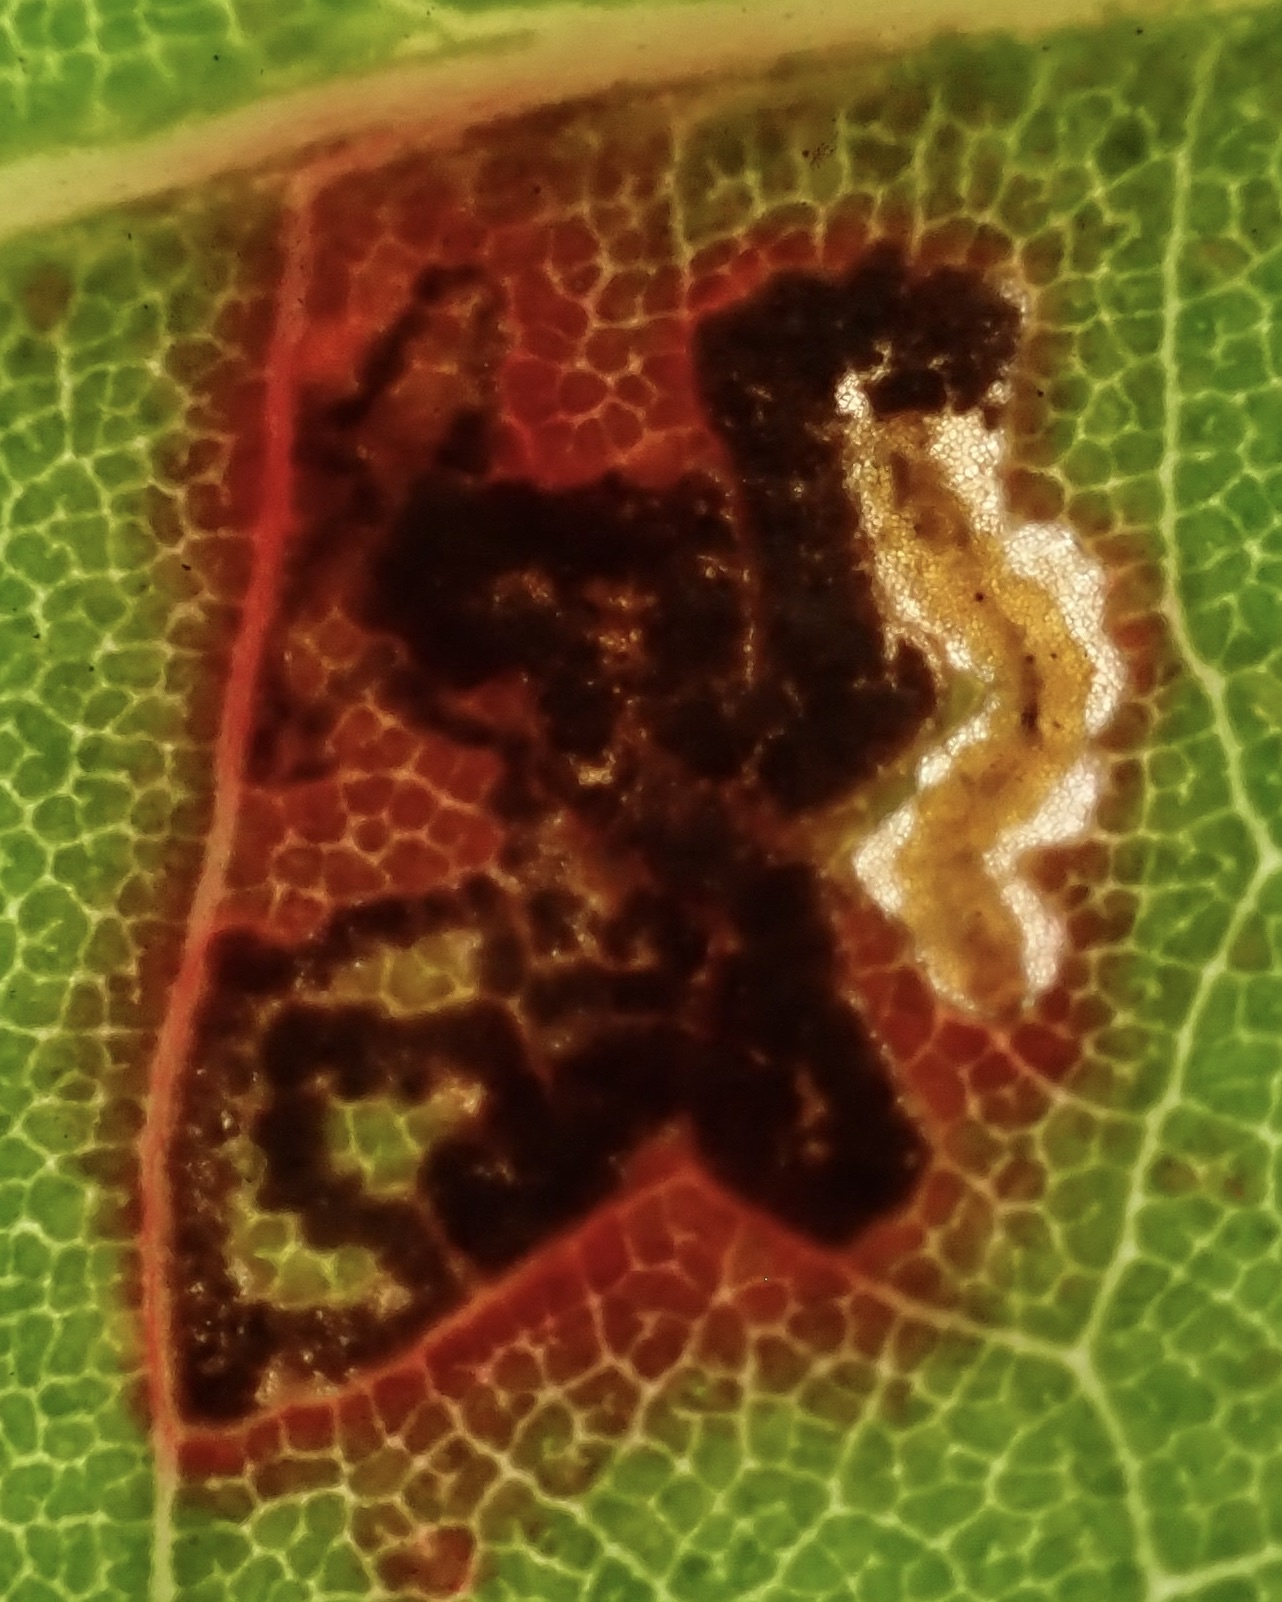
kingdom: Animalia
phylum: Arthropoda
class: Insecta
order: Lepidoptera
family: Nepticulidae
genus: Enteucha
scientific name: Enteucha gilvafascia
